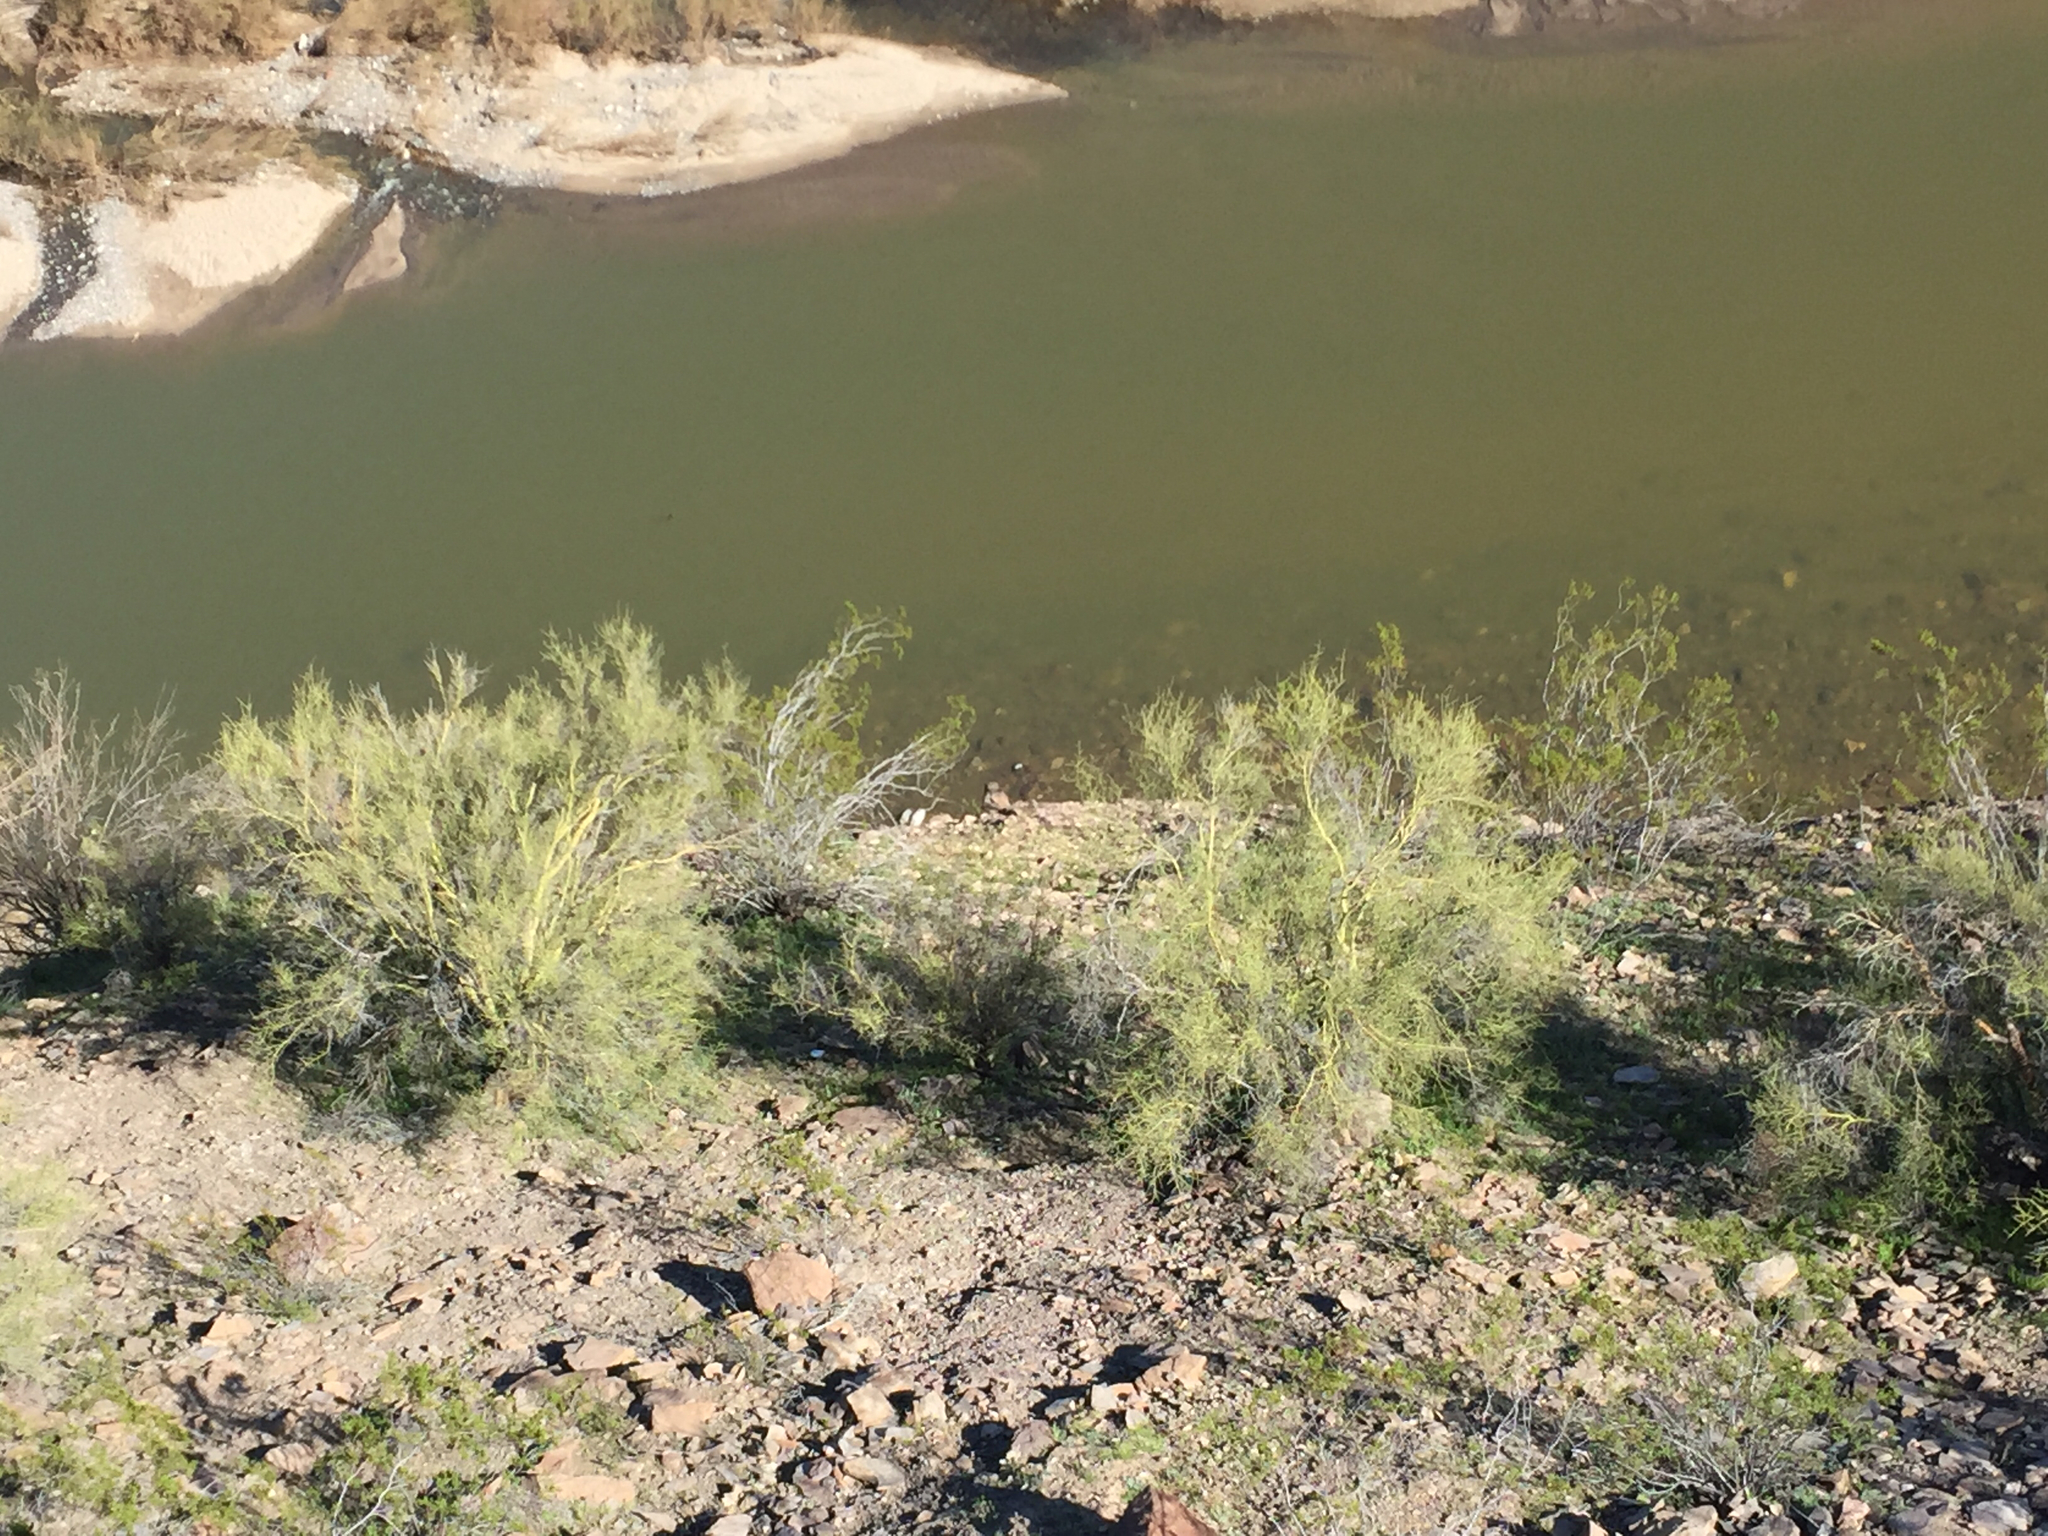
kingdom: Plantae
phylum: Tracheophyta
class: Magnoliopsida
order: Fabales
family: Fabaceae
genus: Parkinsonia
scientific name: Parkinsonia microphylla
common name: Yellow paloverde
